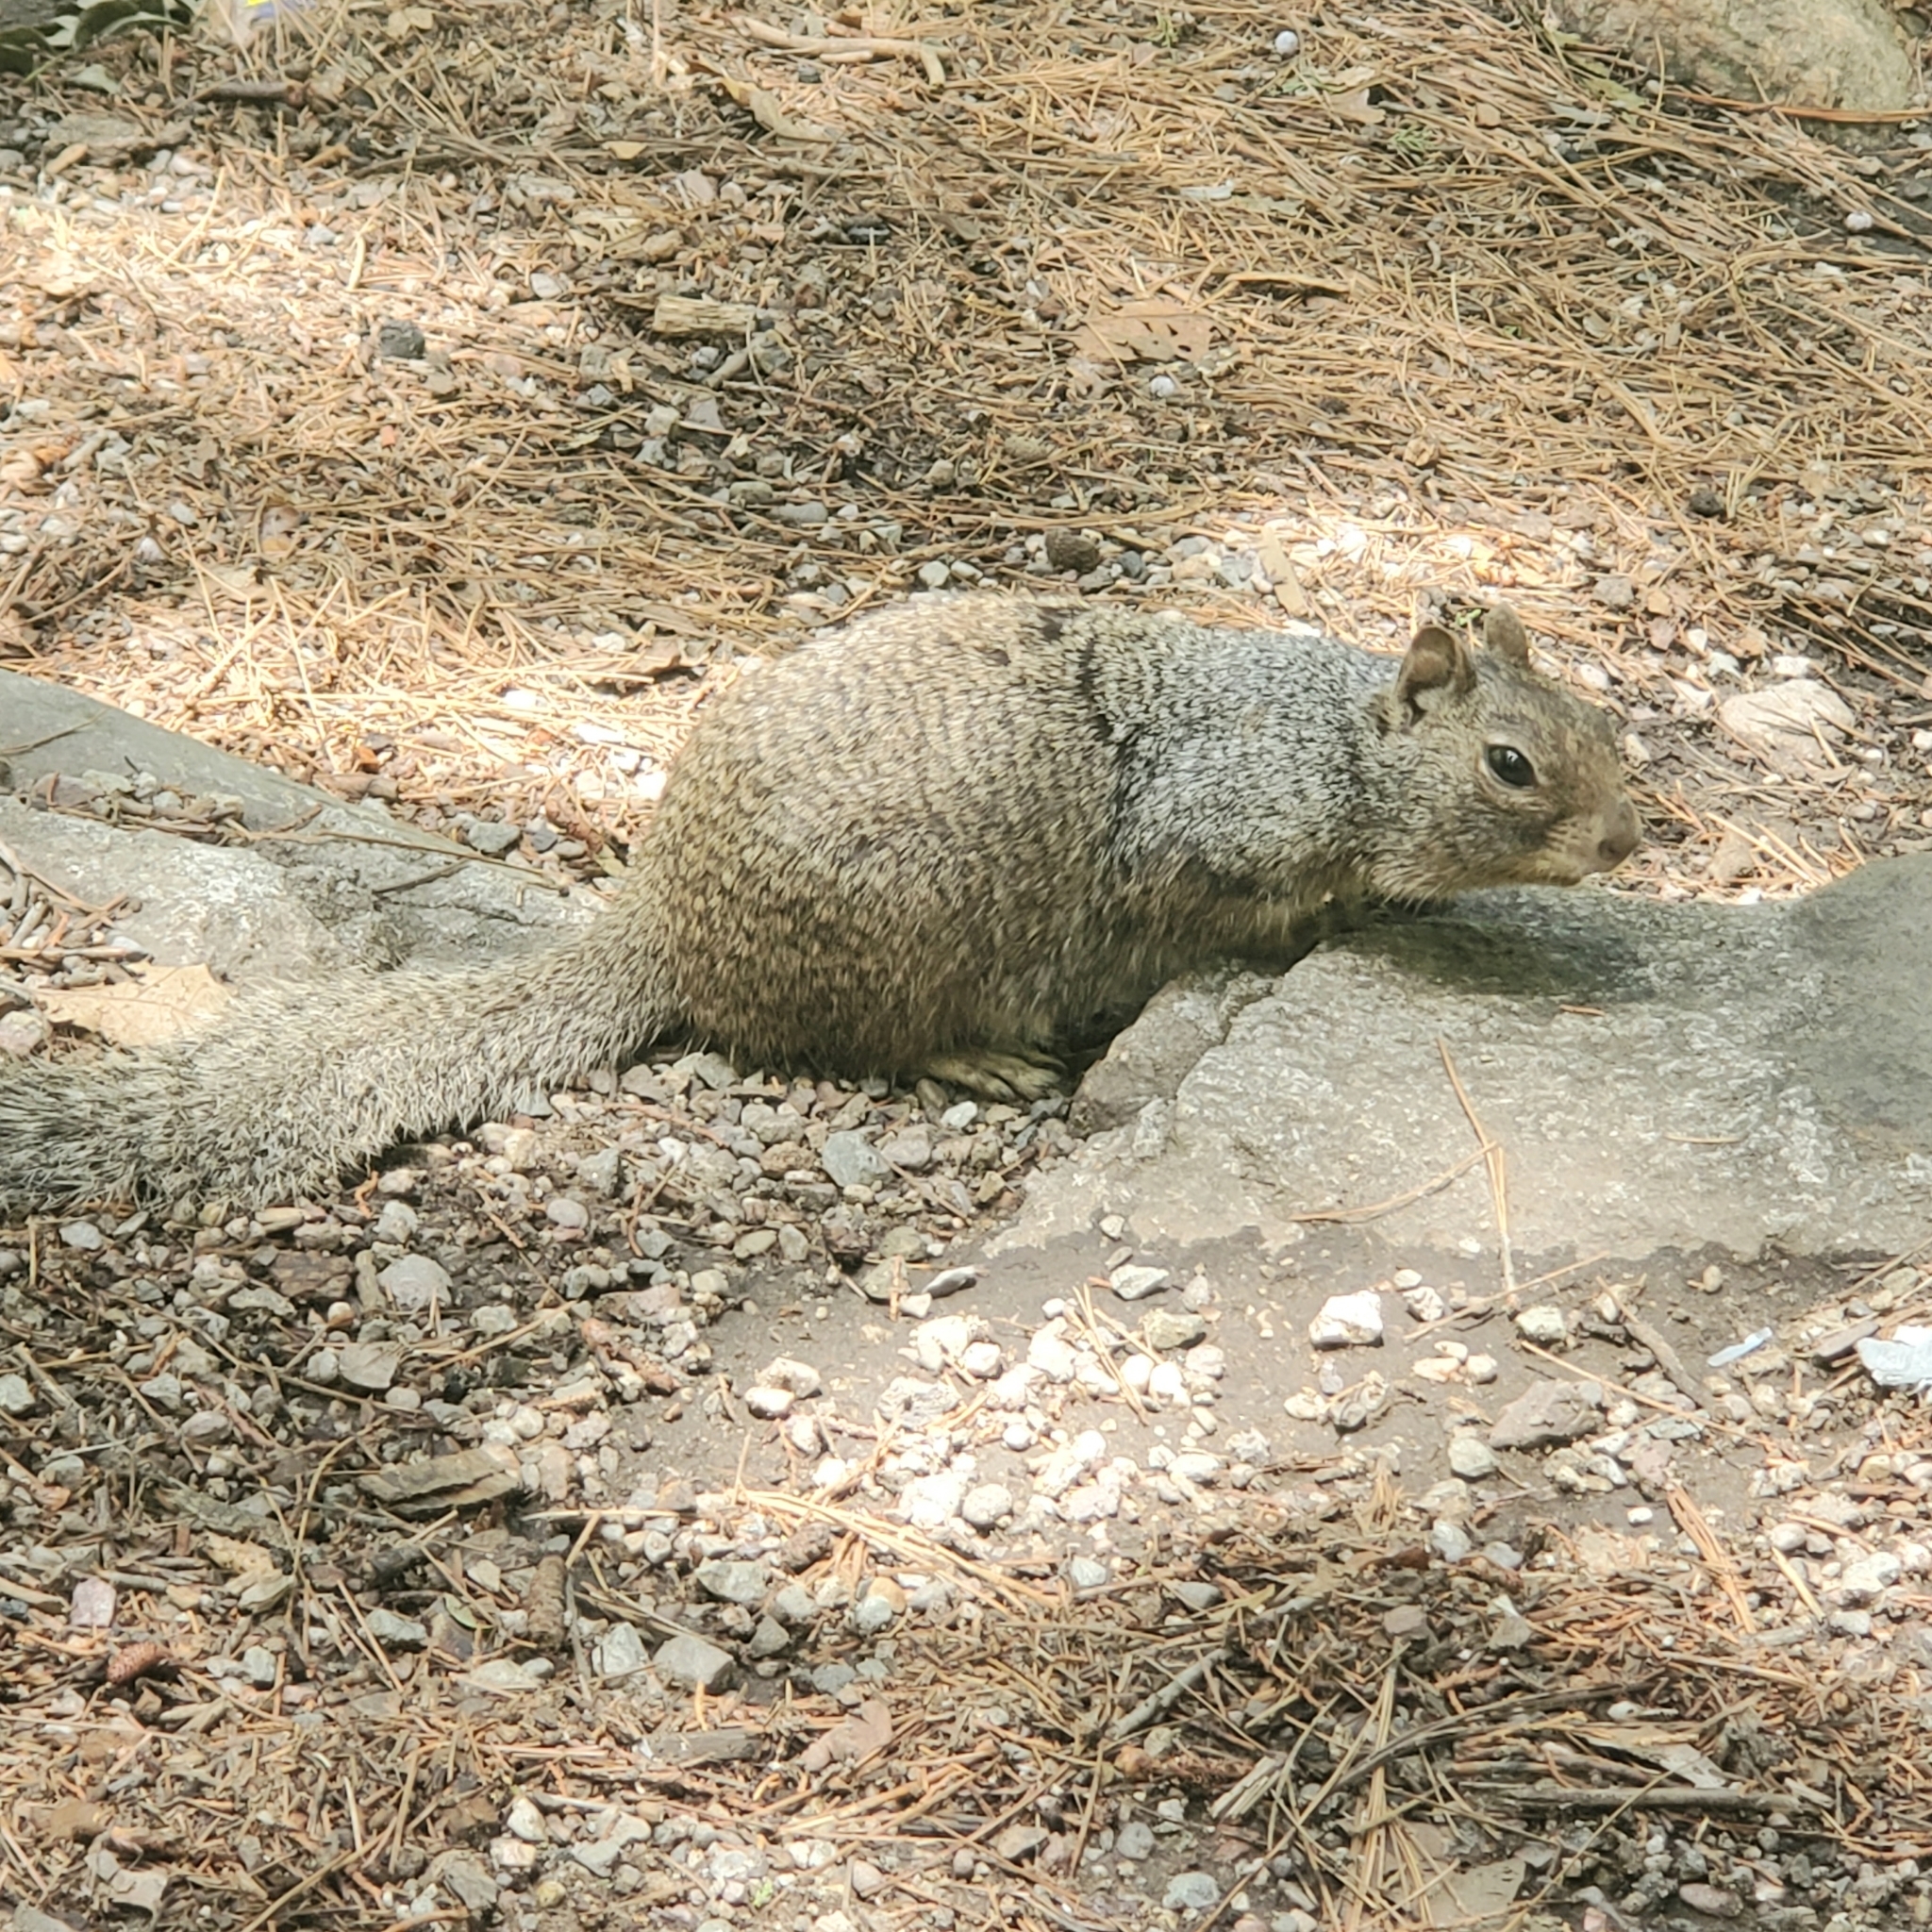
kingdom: Animalia
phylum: Chordata
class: Mammalia
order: Rodentia
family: Sciuridae
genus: Otospermophilus
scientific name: Otospermophilus variegatus
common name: Rock squirrel
